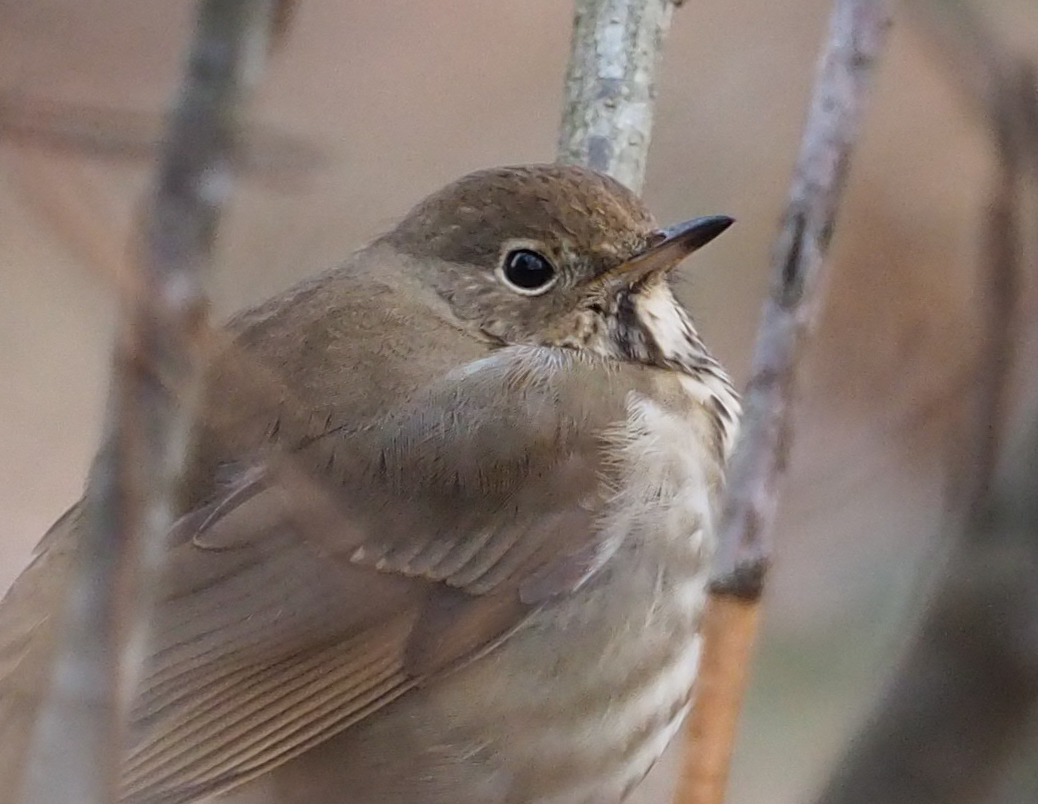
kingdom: Animalia
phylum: Chordata
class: Aves
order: Passeriformes
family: Turdidae
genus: Catharus
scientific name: Catharus guttatus
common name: Hermit thrush
